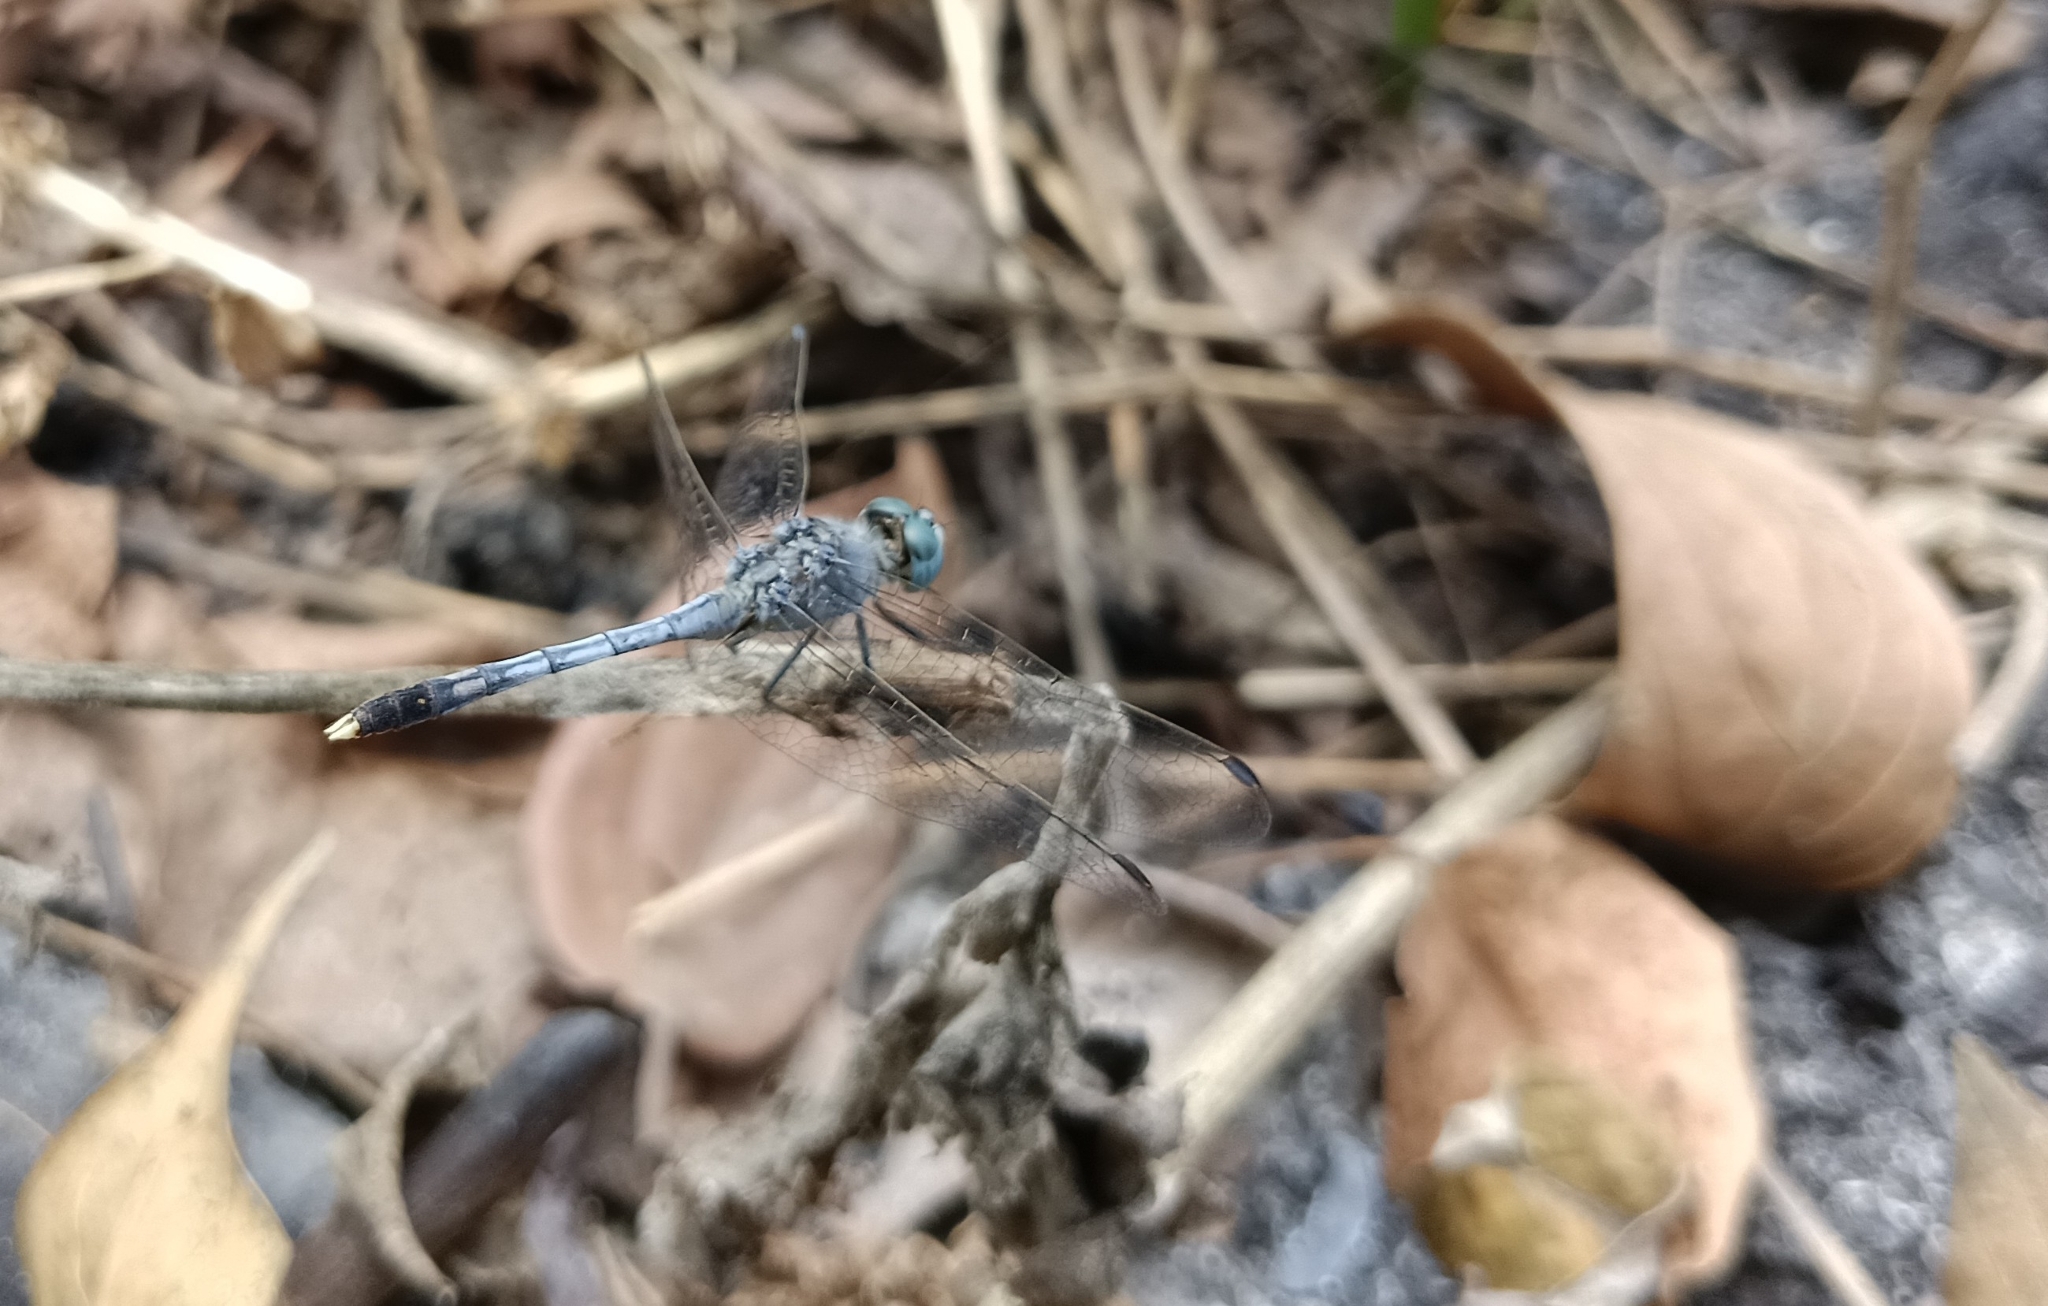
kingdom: Animalia
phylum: Arthropoda
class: Insecta
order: Odonata
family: Libellulidae
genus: Diplacodes
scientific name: Diplacodes trivialis
